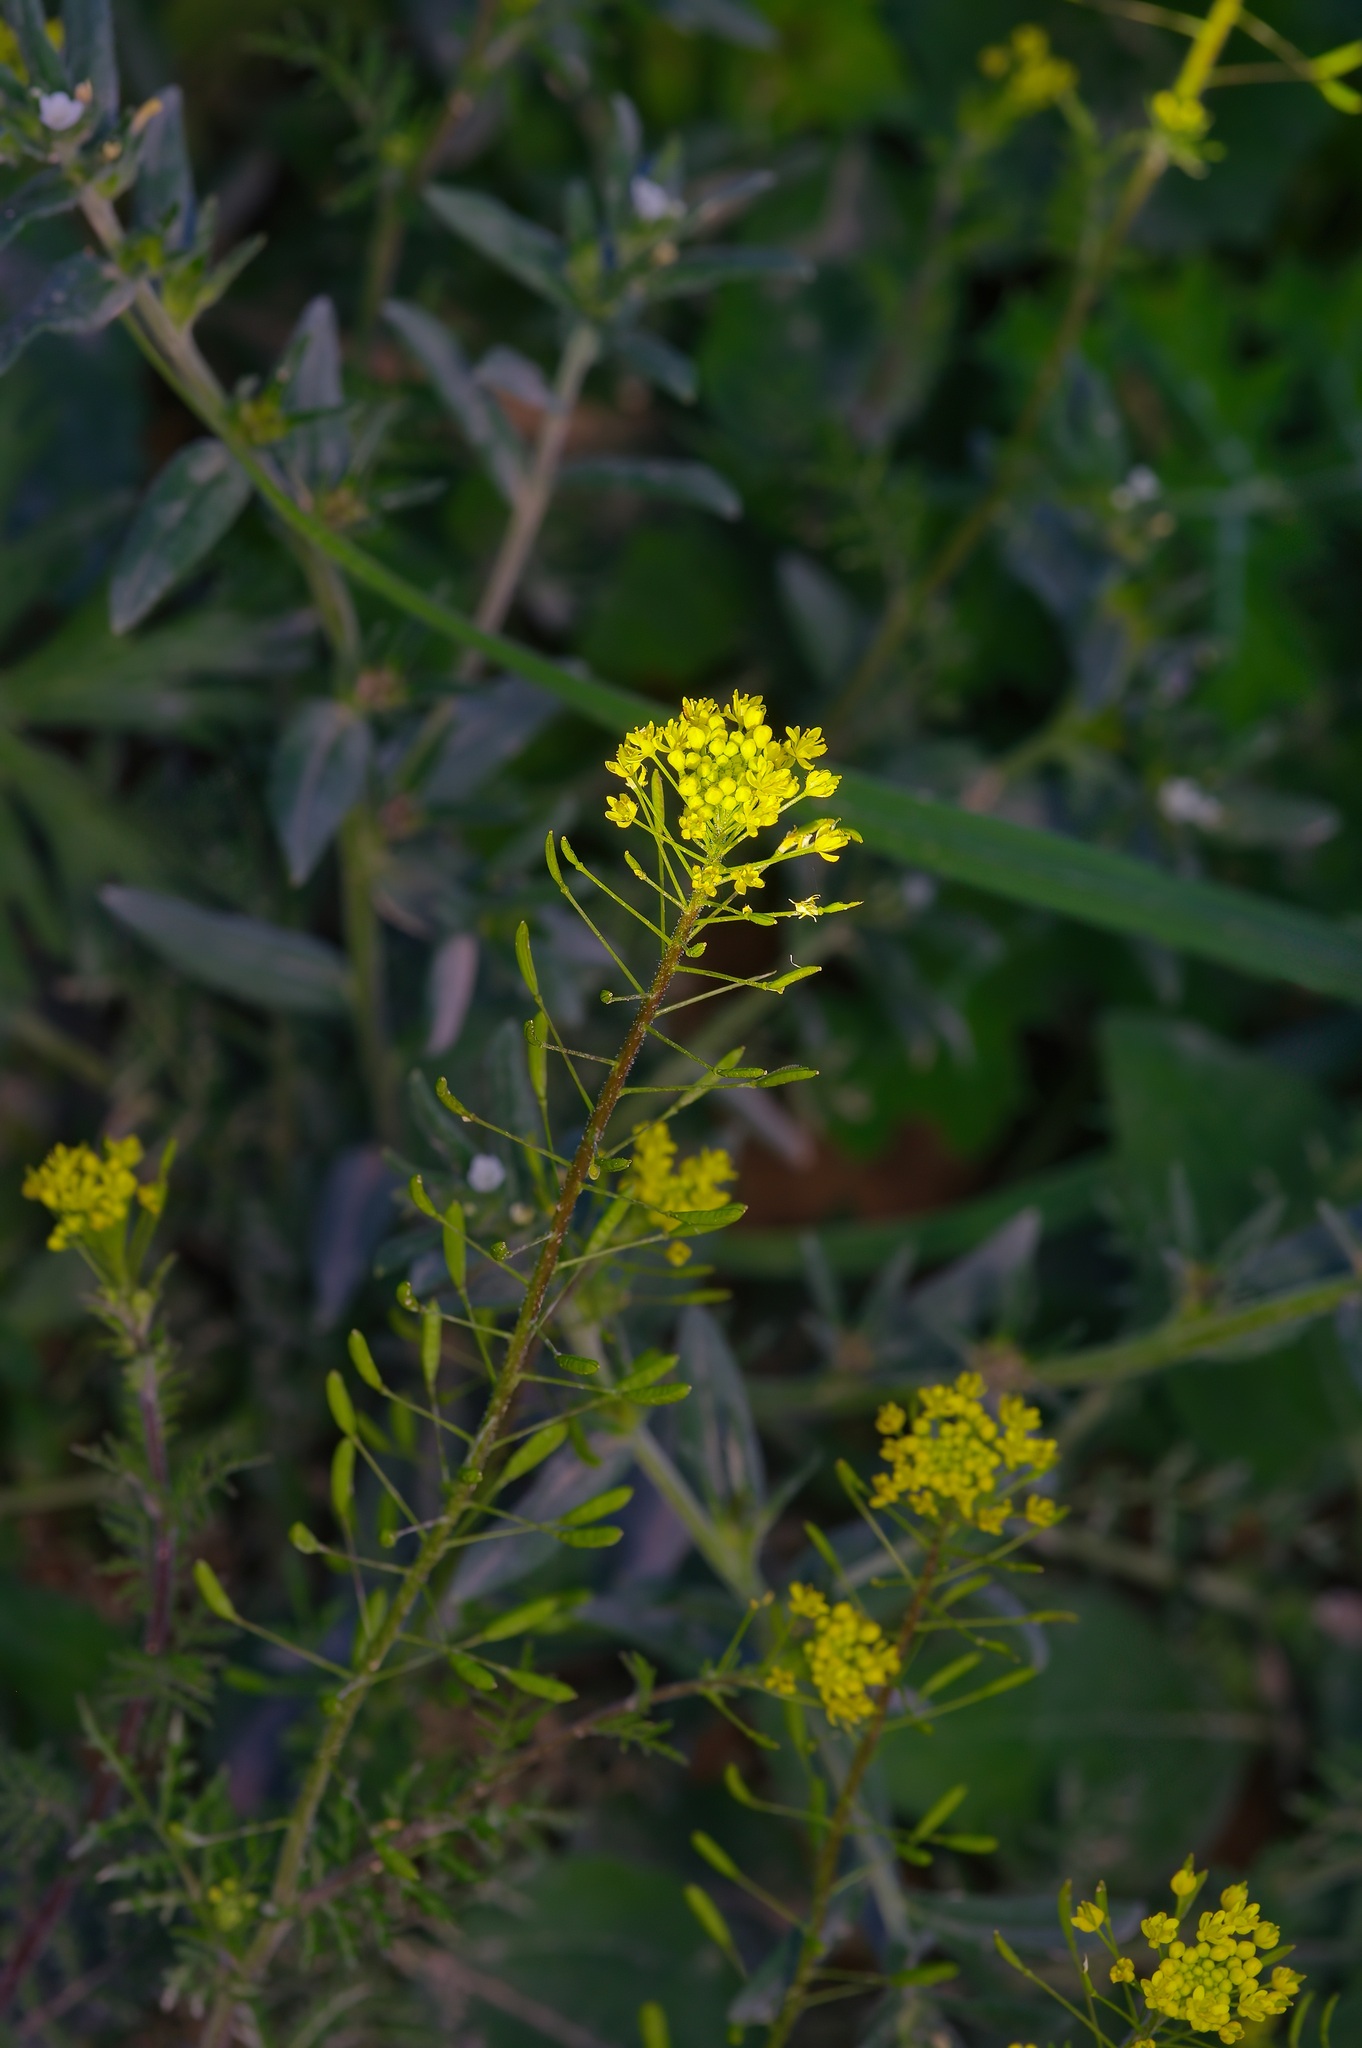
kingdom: Plantae
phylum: Tracheophyta
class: Magnoliopsida
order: Brassicales
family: Brassicaceae
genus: Descurainia
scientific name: Descurainia pinnata
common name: Western tansy mustard
